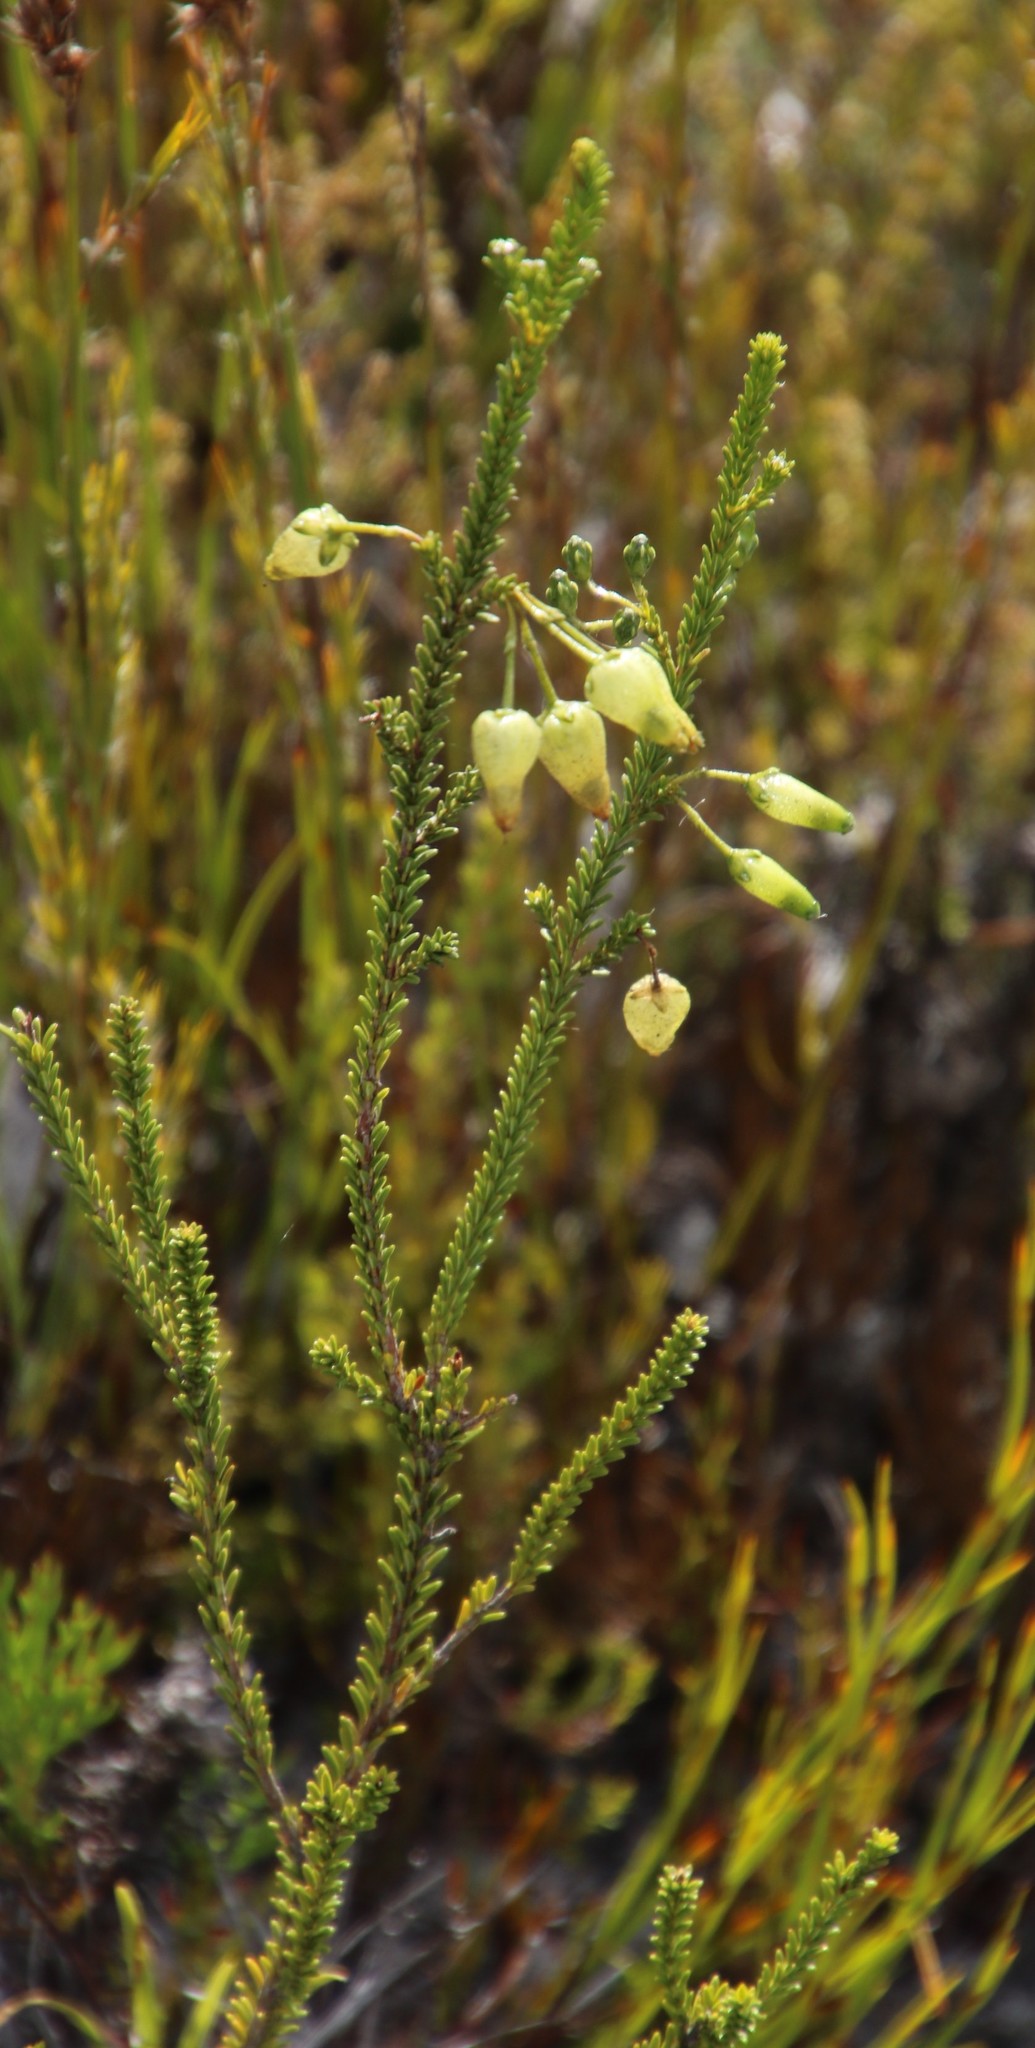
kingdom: Plantae
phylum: Tracheophyta
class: Magnoliopsida
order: Ericales
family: Ericaceae
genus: Erica
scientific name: Erica urna-viridis
